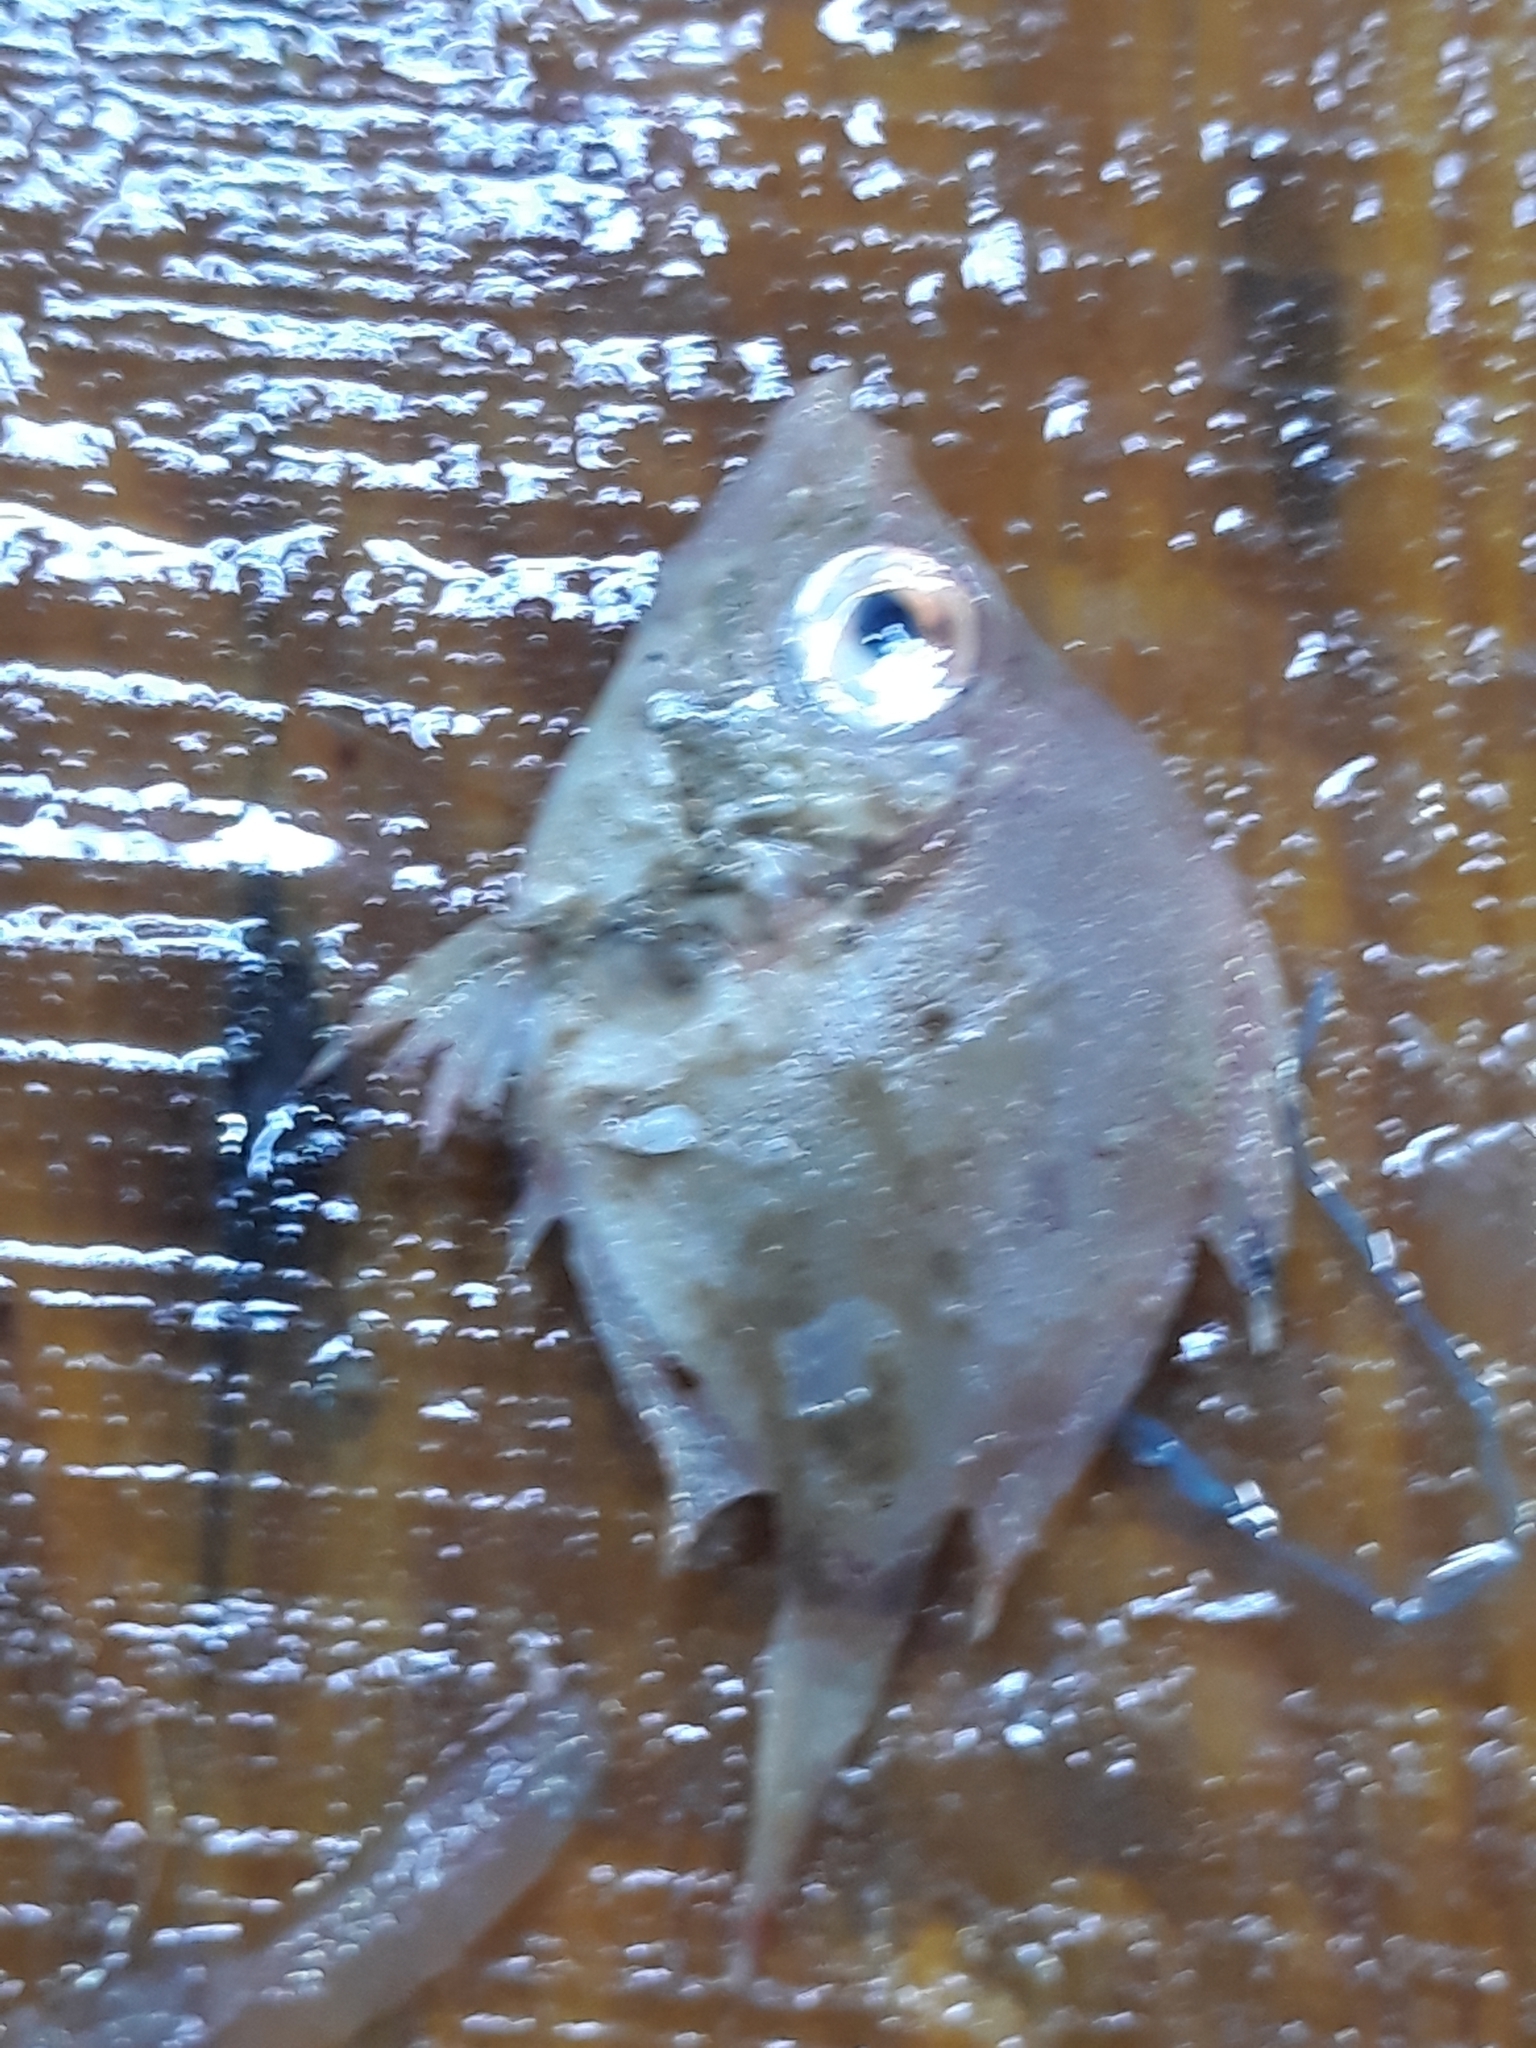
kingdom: Animalia
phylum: Chordata
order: Perciformes
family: Caproidae
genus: Capros
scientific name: Capros aper
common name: Boarfish
